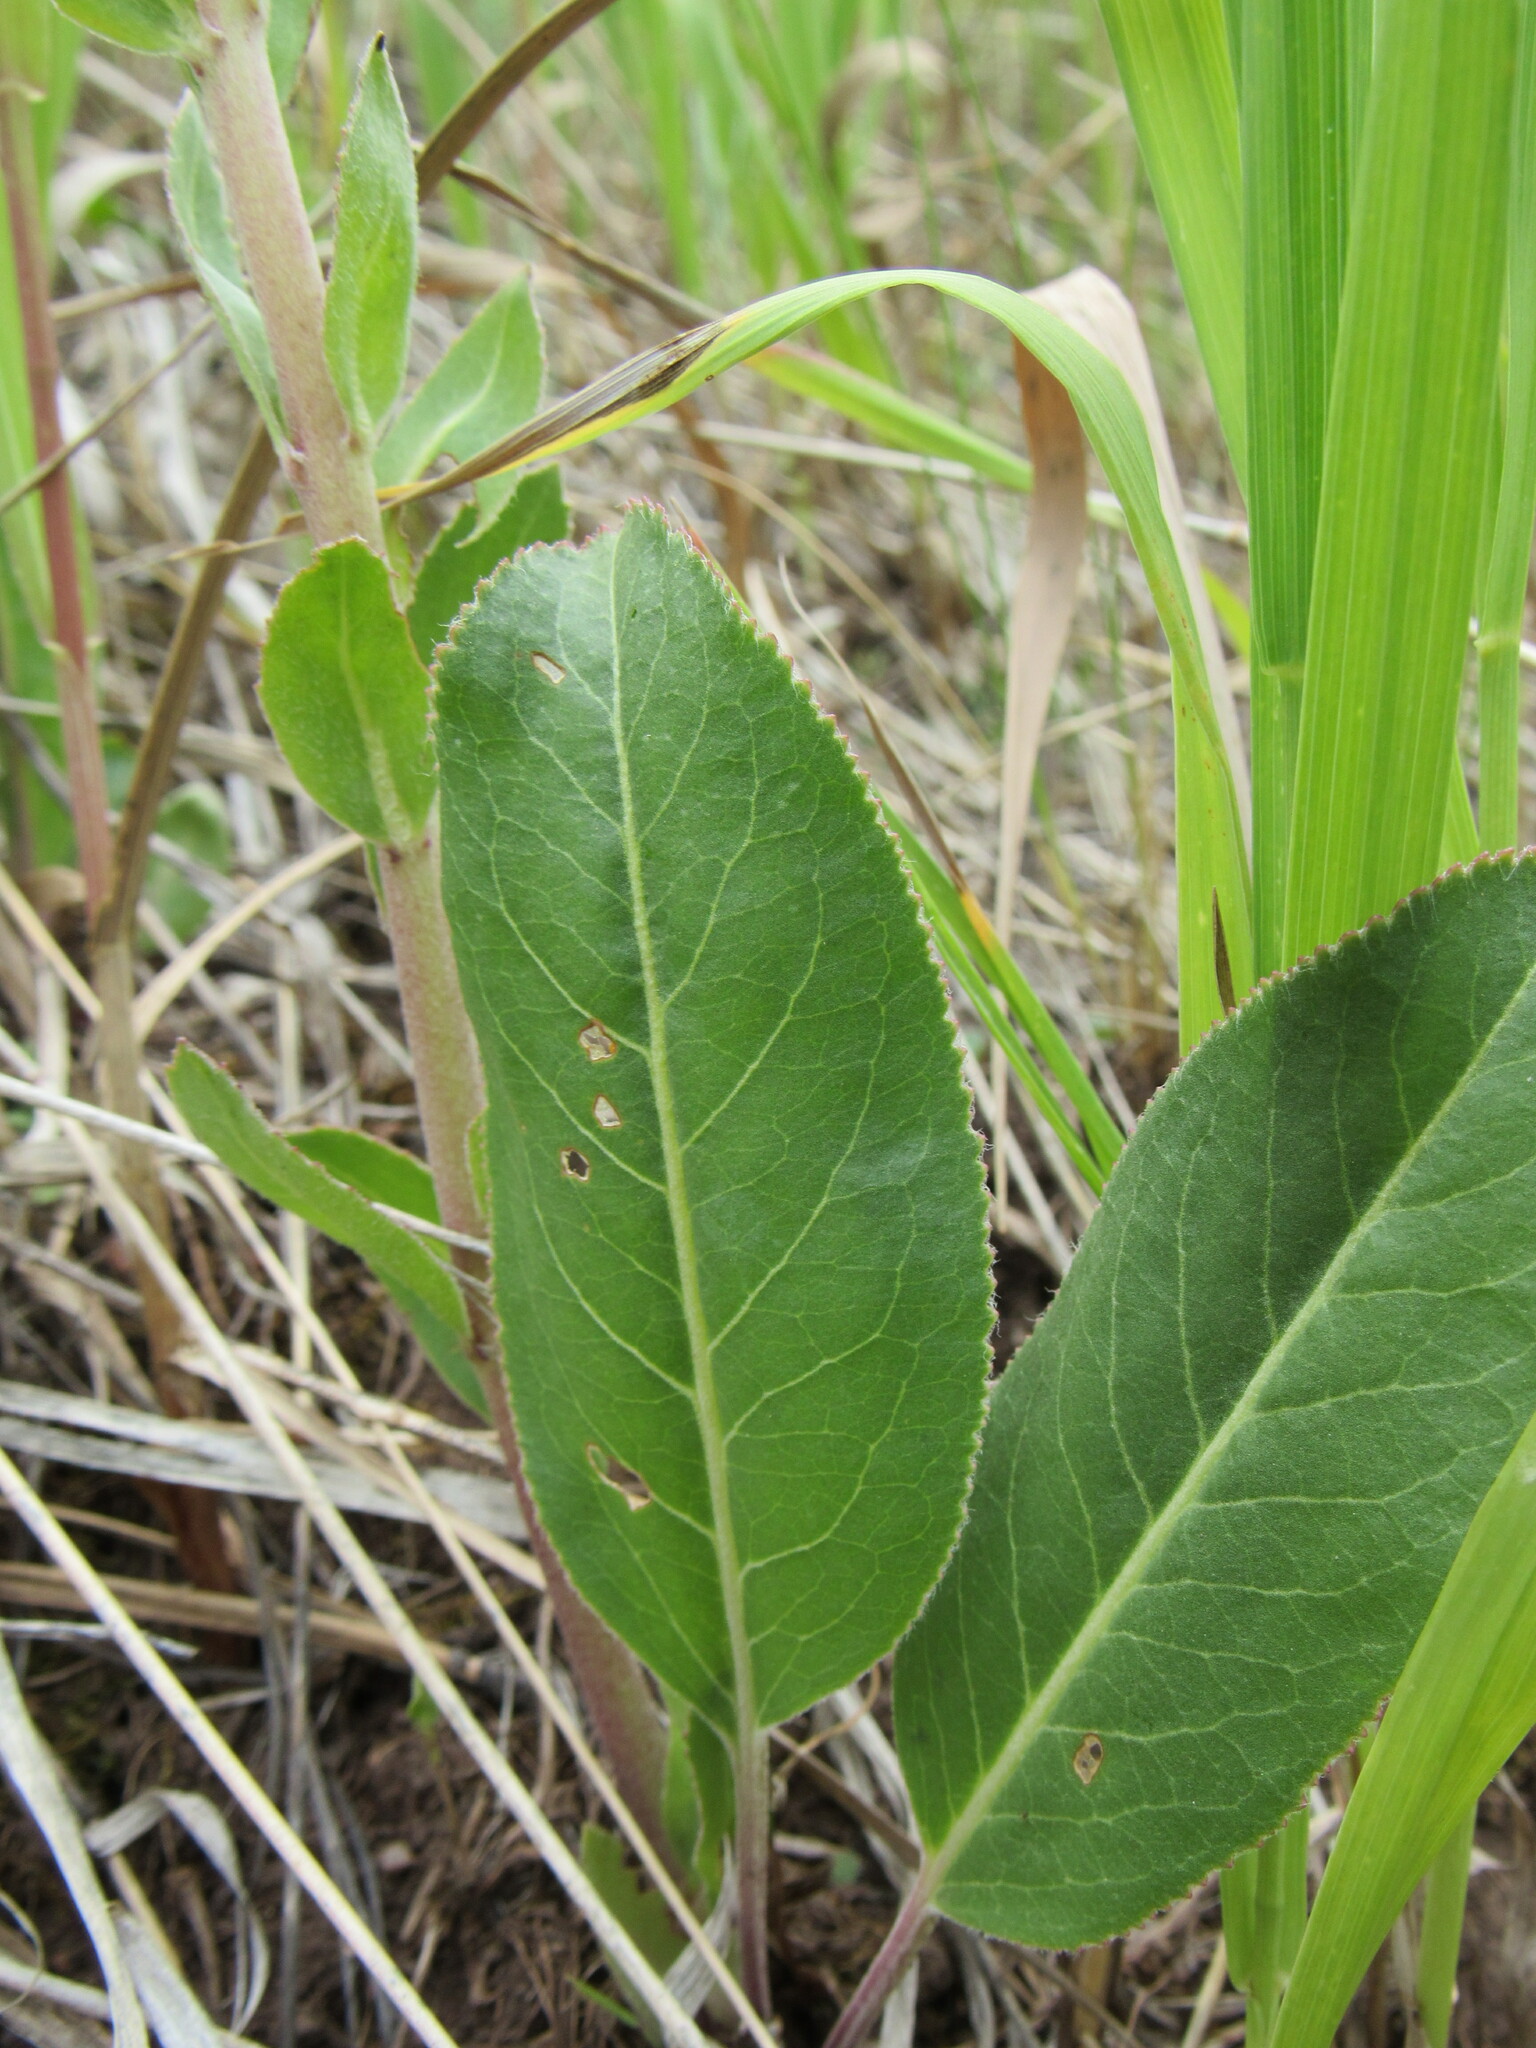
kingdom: Plantae
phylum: Tracheophyta
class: Magnoliopsida
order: Lamiales
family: Plantaginaceae
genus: Veronica
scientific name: Veronica plantaginea
